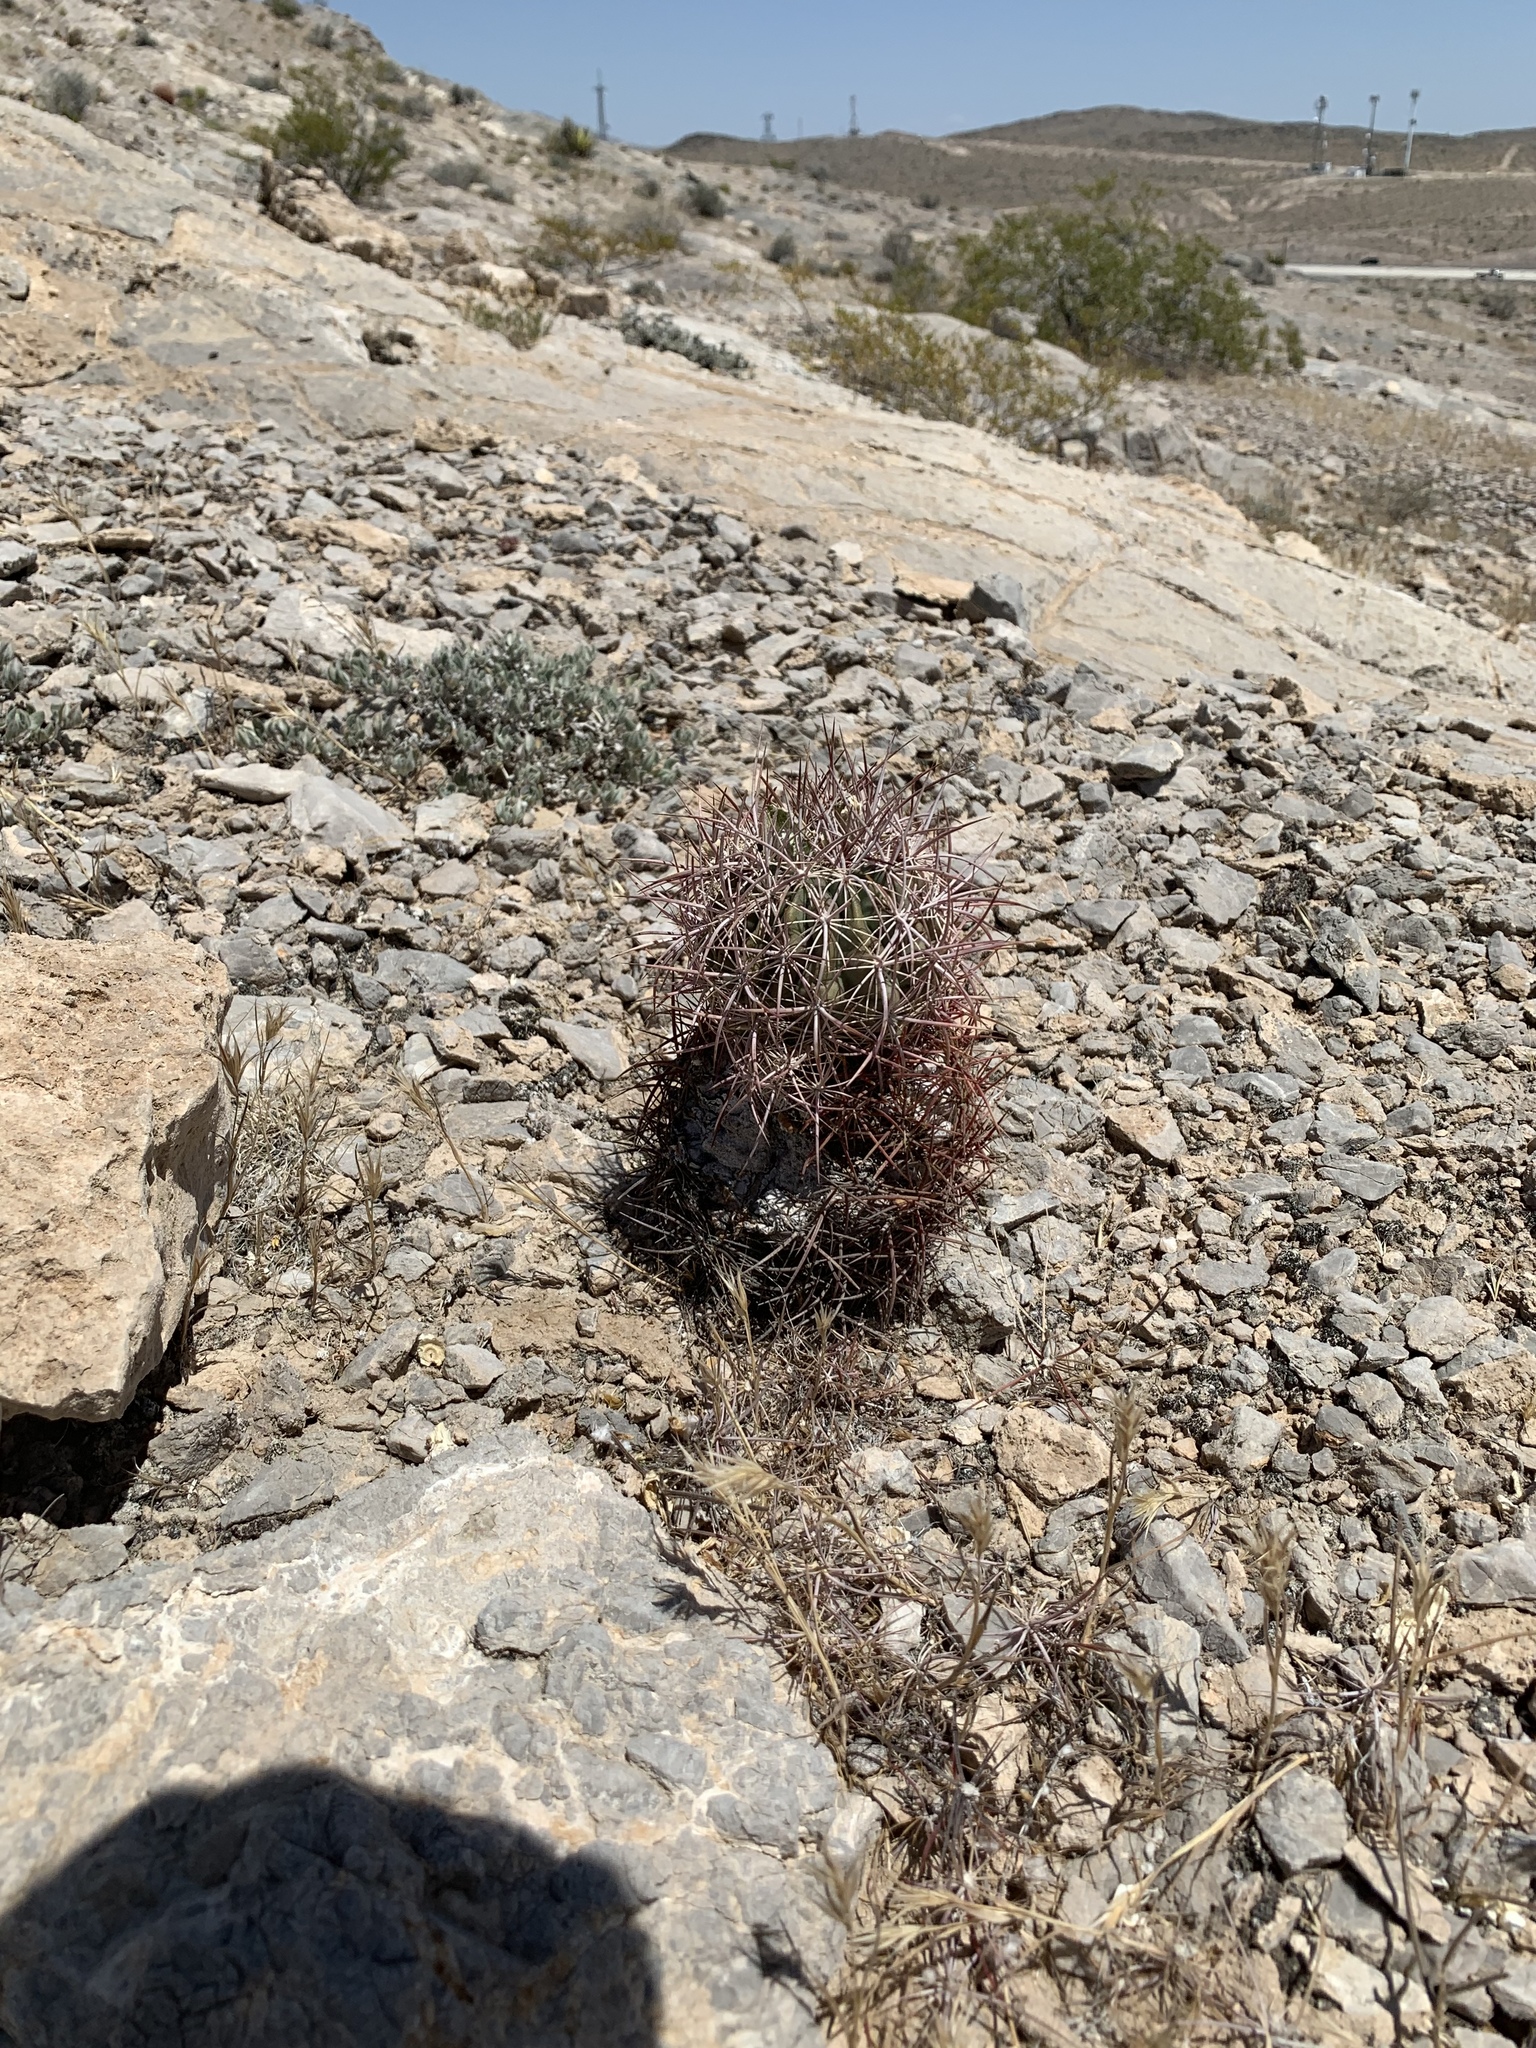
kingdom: Plantae
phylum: Tracheophyta
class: Magnoliopsida
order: Caryophyllales
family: Cactaceae
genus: Sclerocactus
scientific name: Sclerocactus johnsonii
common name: Eight-spine fishhook cactus
